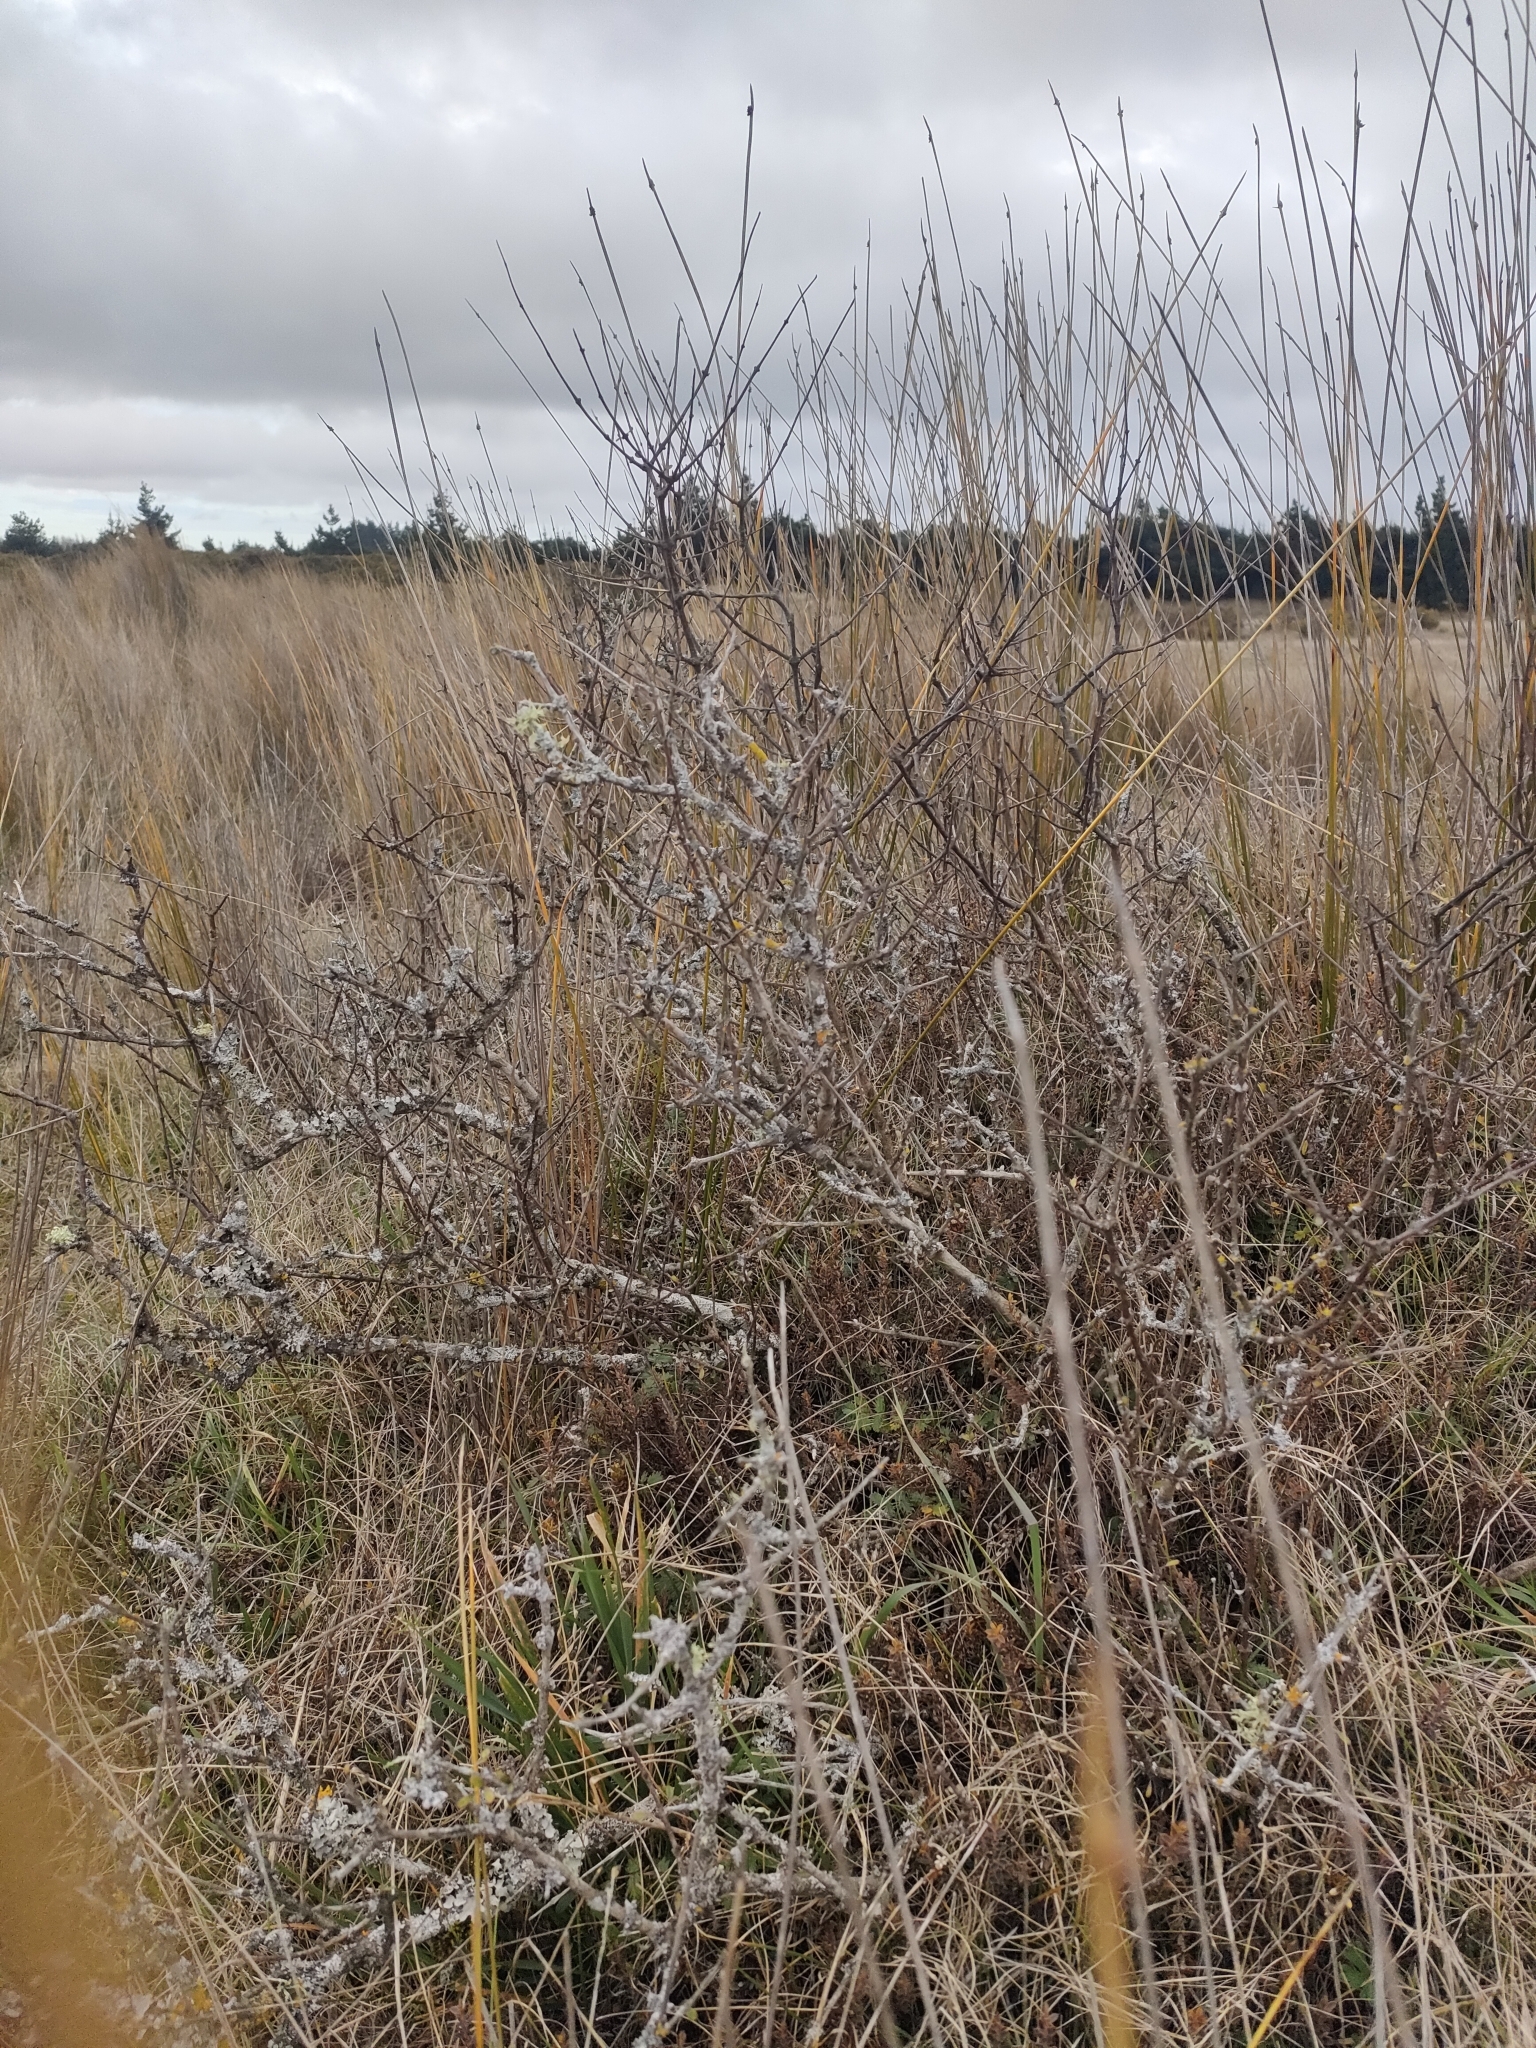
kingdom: Plantae
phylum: Tracheophyta
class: Magnoliopsida
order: Asterales
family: Asteraceae
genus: Olearia
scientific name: Olearia adenocarpa
